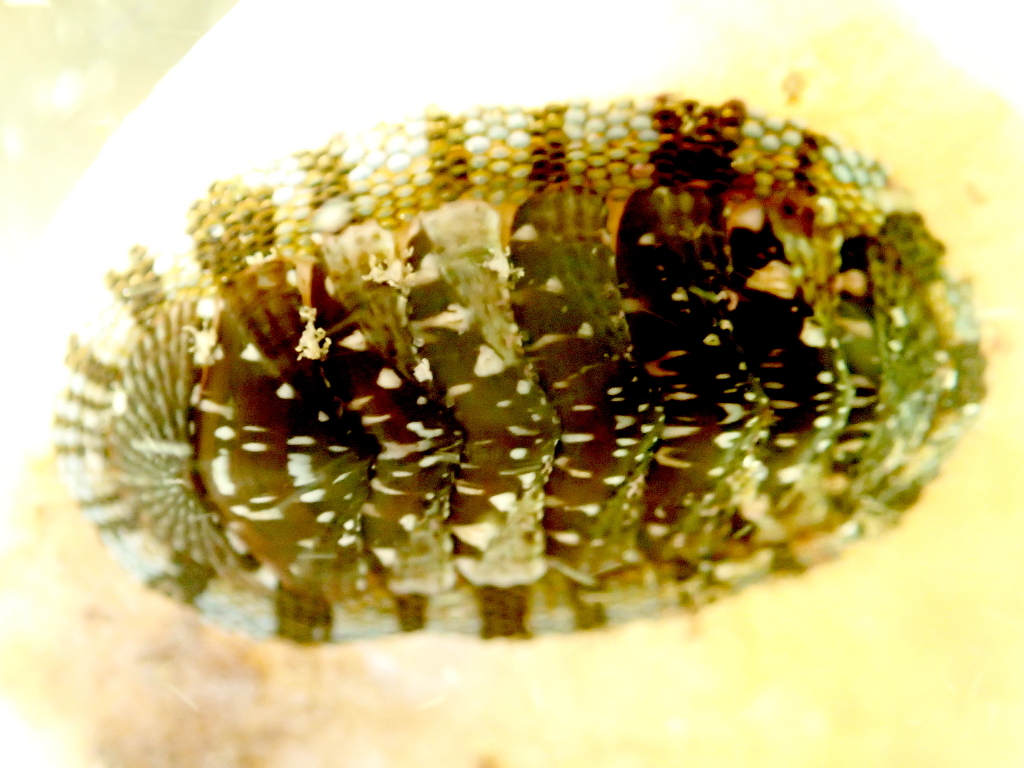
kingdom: Animalia
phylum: Mollusca
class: Polyplacophora
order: Chitonida
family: Chitonidae
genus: Sypharochiton
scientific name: Sypharochiton sinclairi
